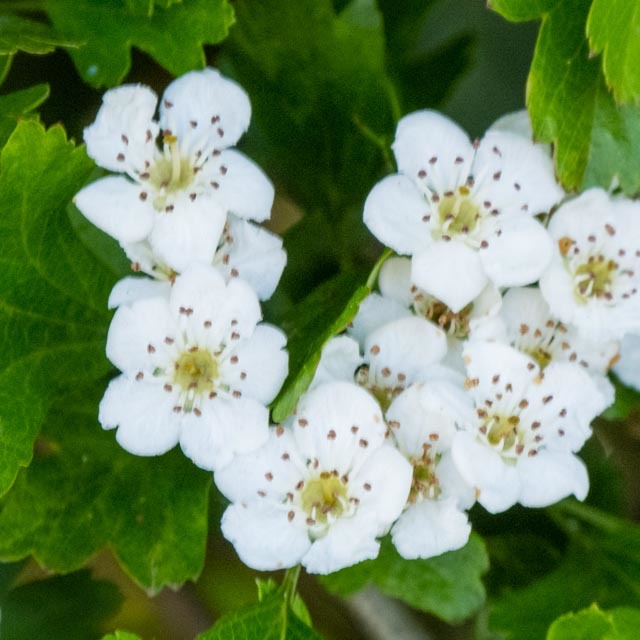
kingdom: Plantae
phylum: Tracheophyta
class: Magnoliopsida
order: Rosales
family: Rosaceae
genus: Crataegus
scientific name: Crataegus monogyna
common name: Hawthorn
